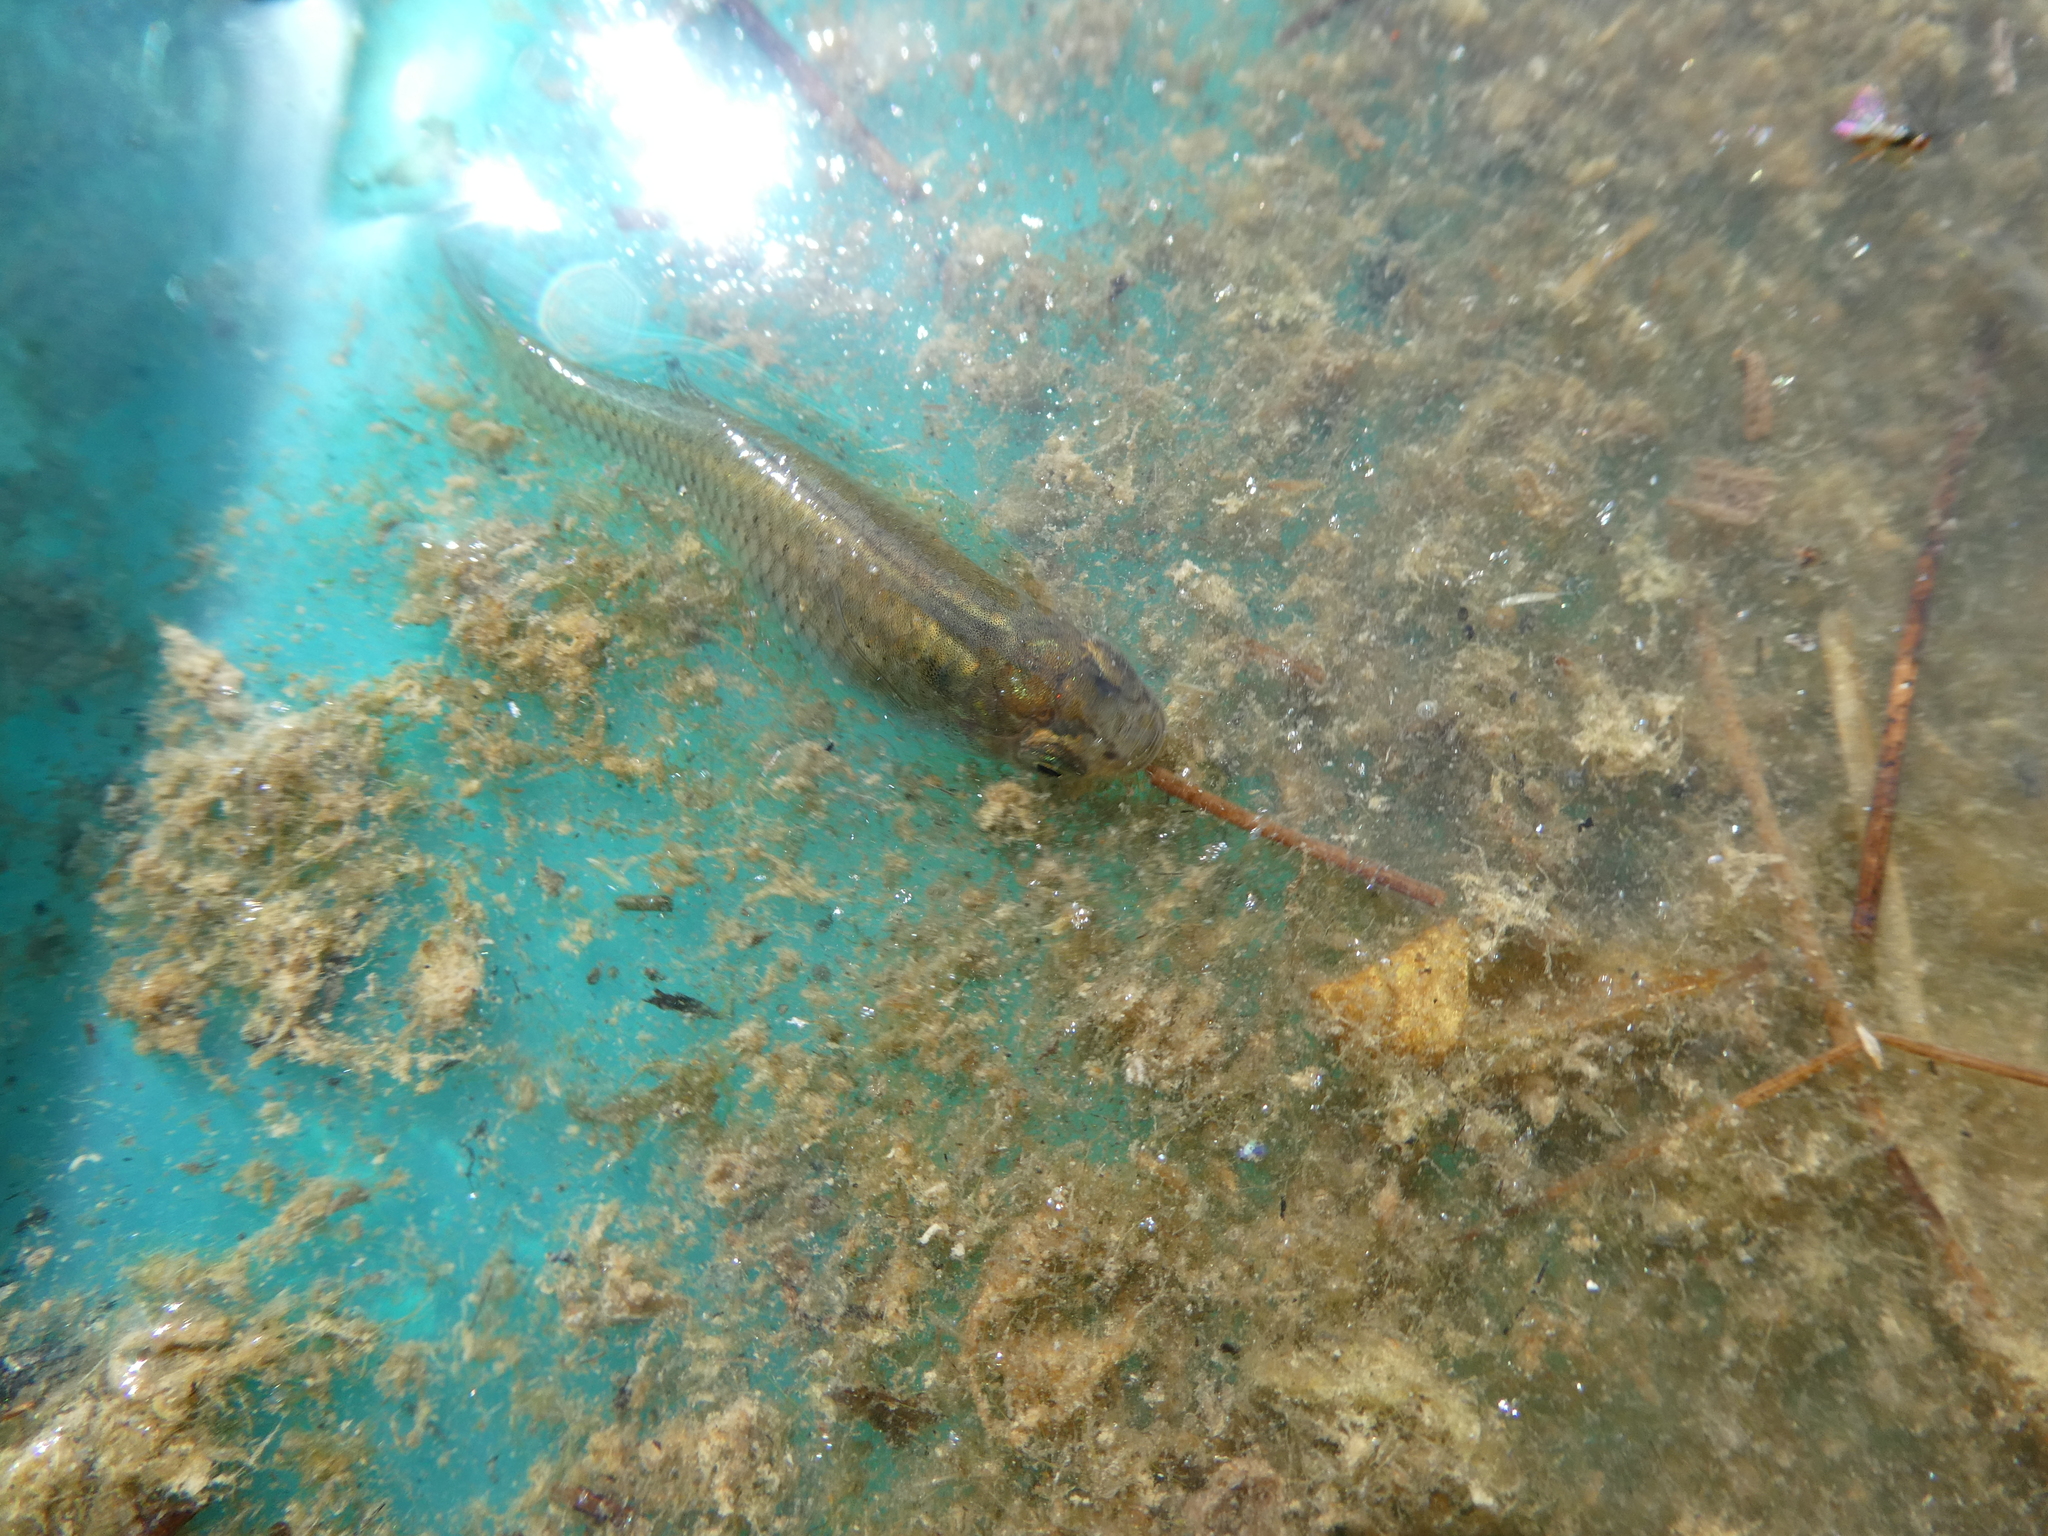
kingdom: Animalia
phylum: Chordata
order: Cyprinodontiformes
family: Poeciliidae
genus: Gambusia
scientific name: Gambusia affinis
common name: Mosquitofish
